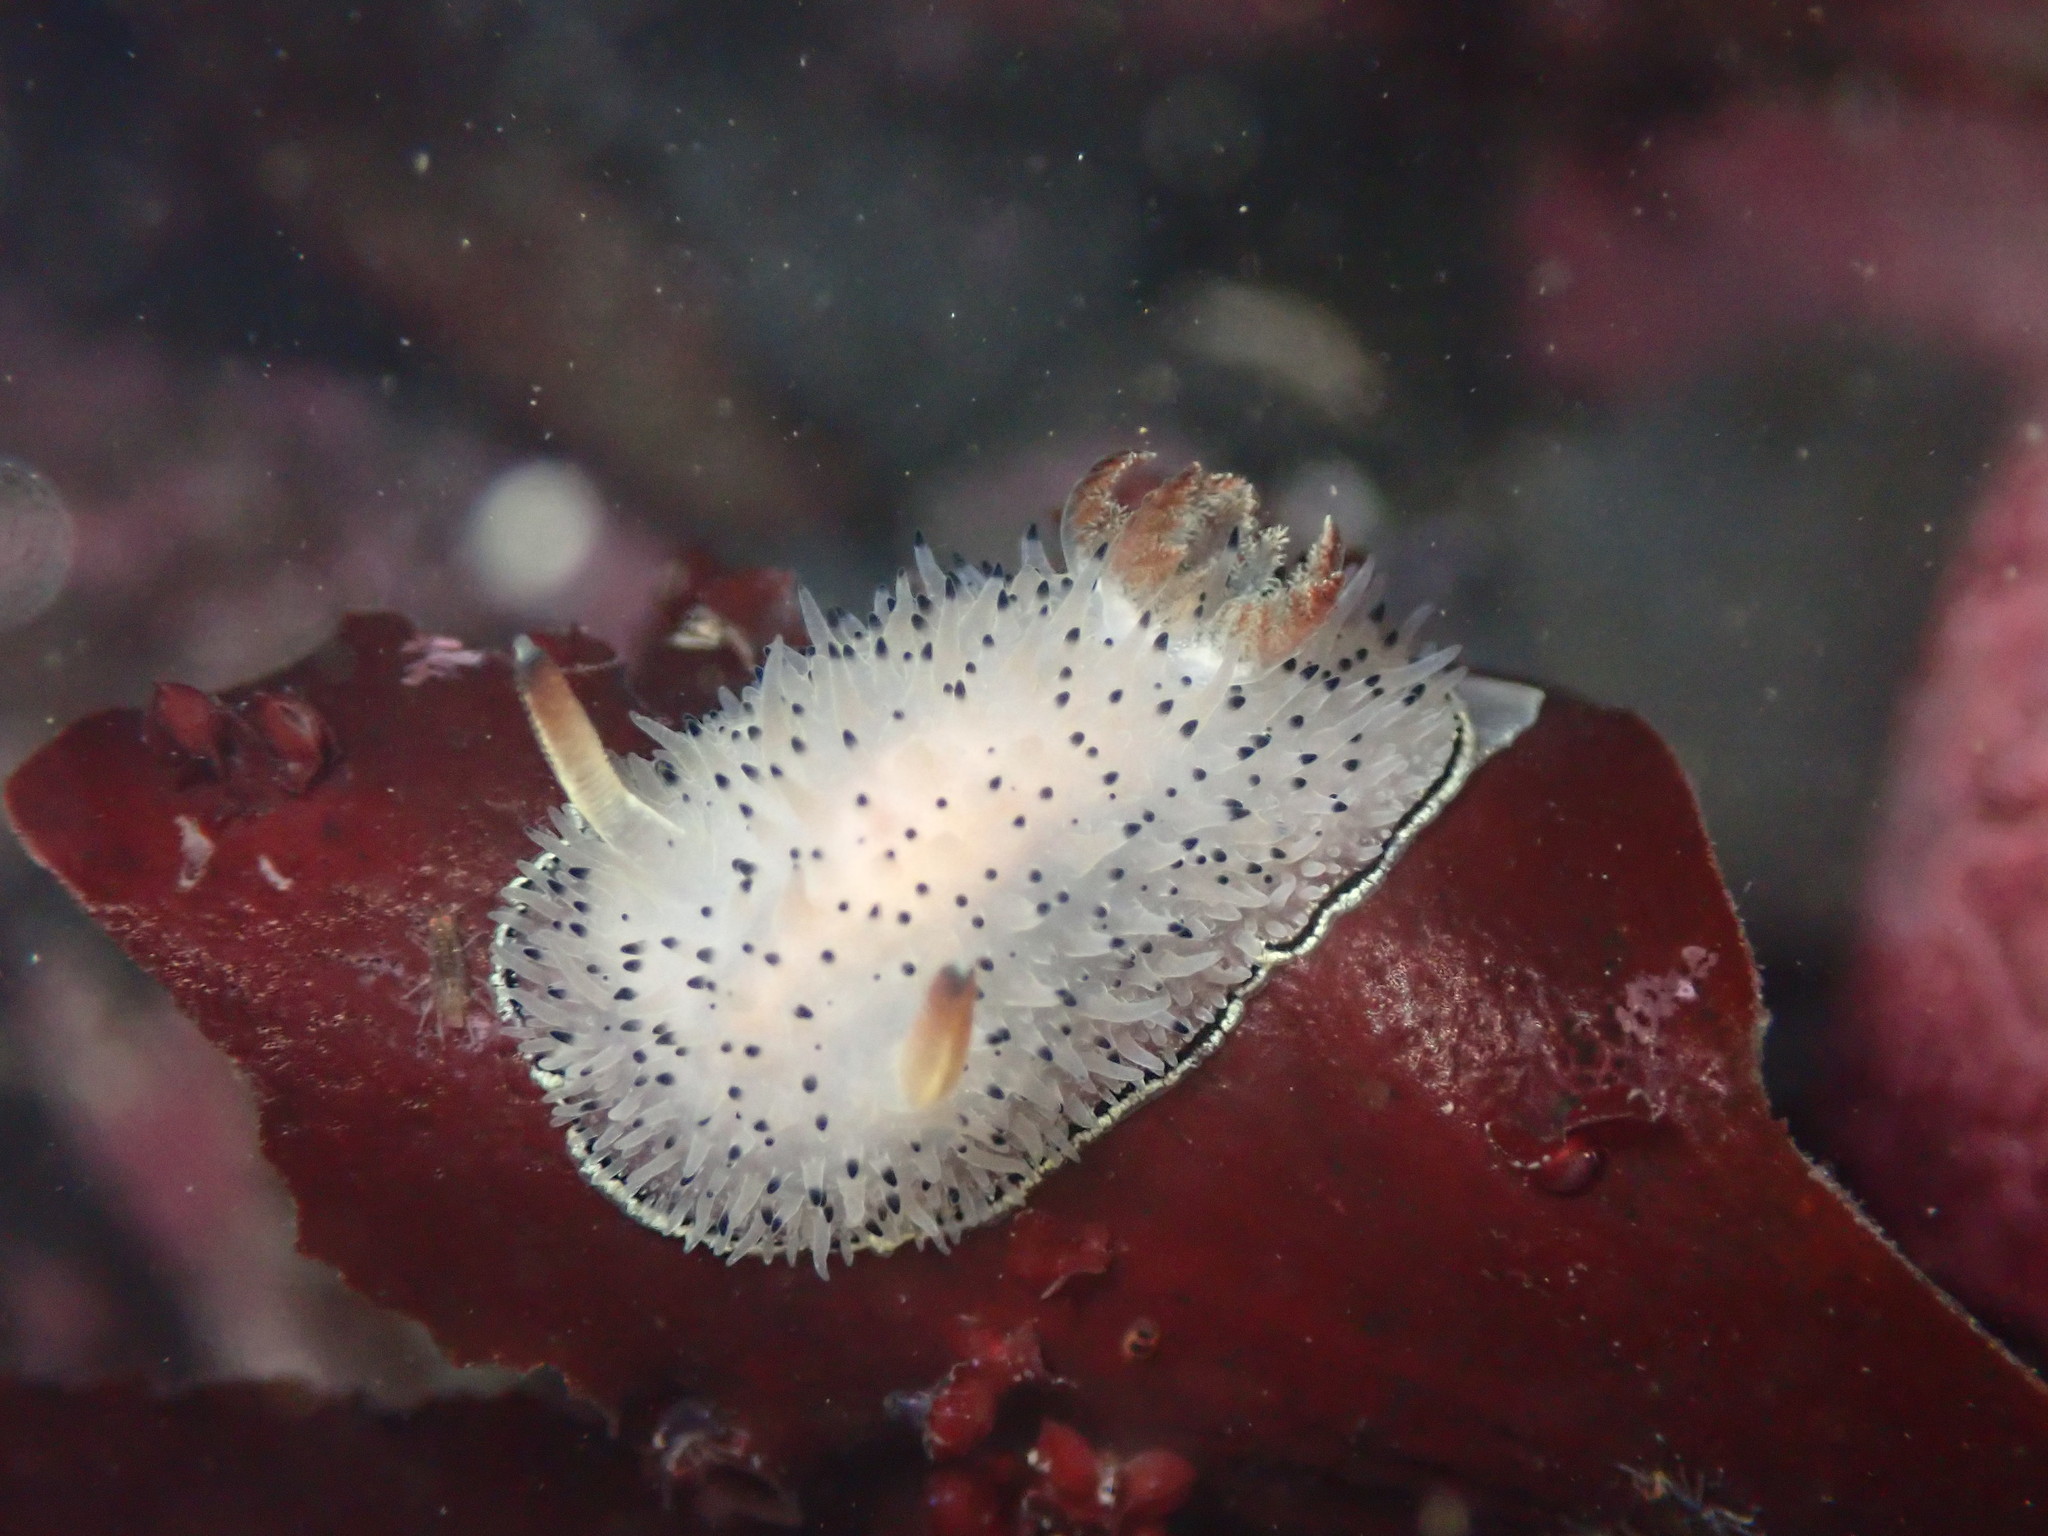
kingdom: Animalia
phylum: Mollusca
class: Gastropoda
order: Nudibranchia
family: Onchidorididae
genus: Acanthodoris
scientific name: Acanthodoris rhodoceras
